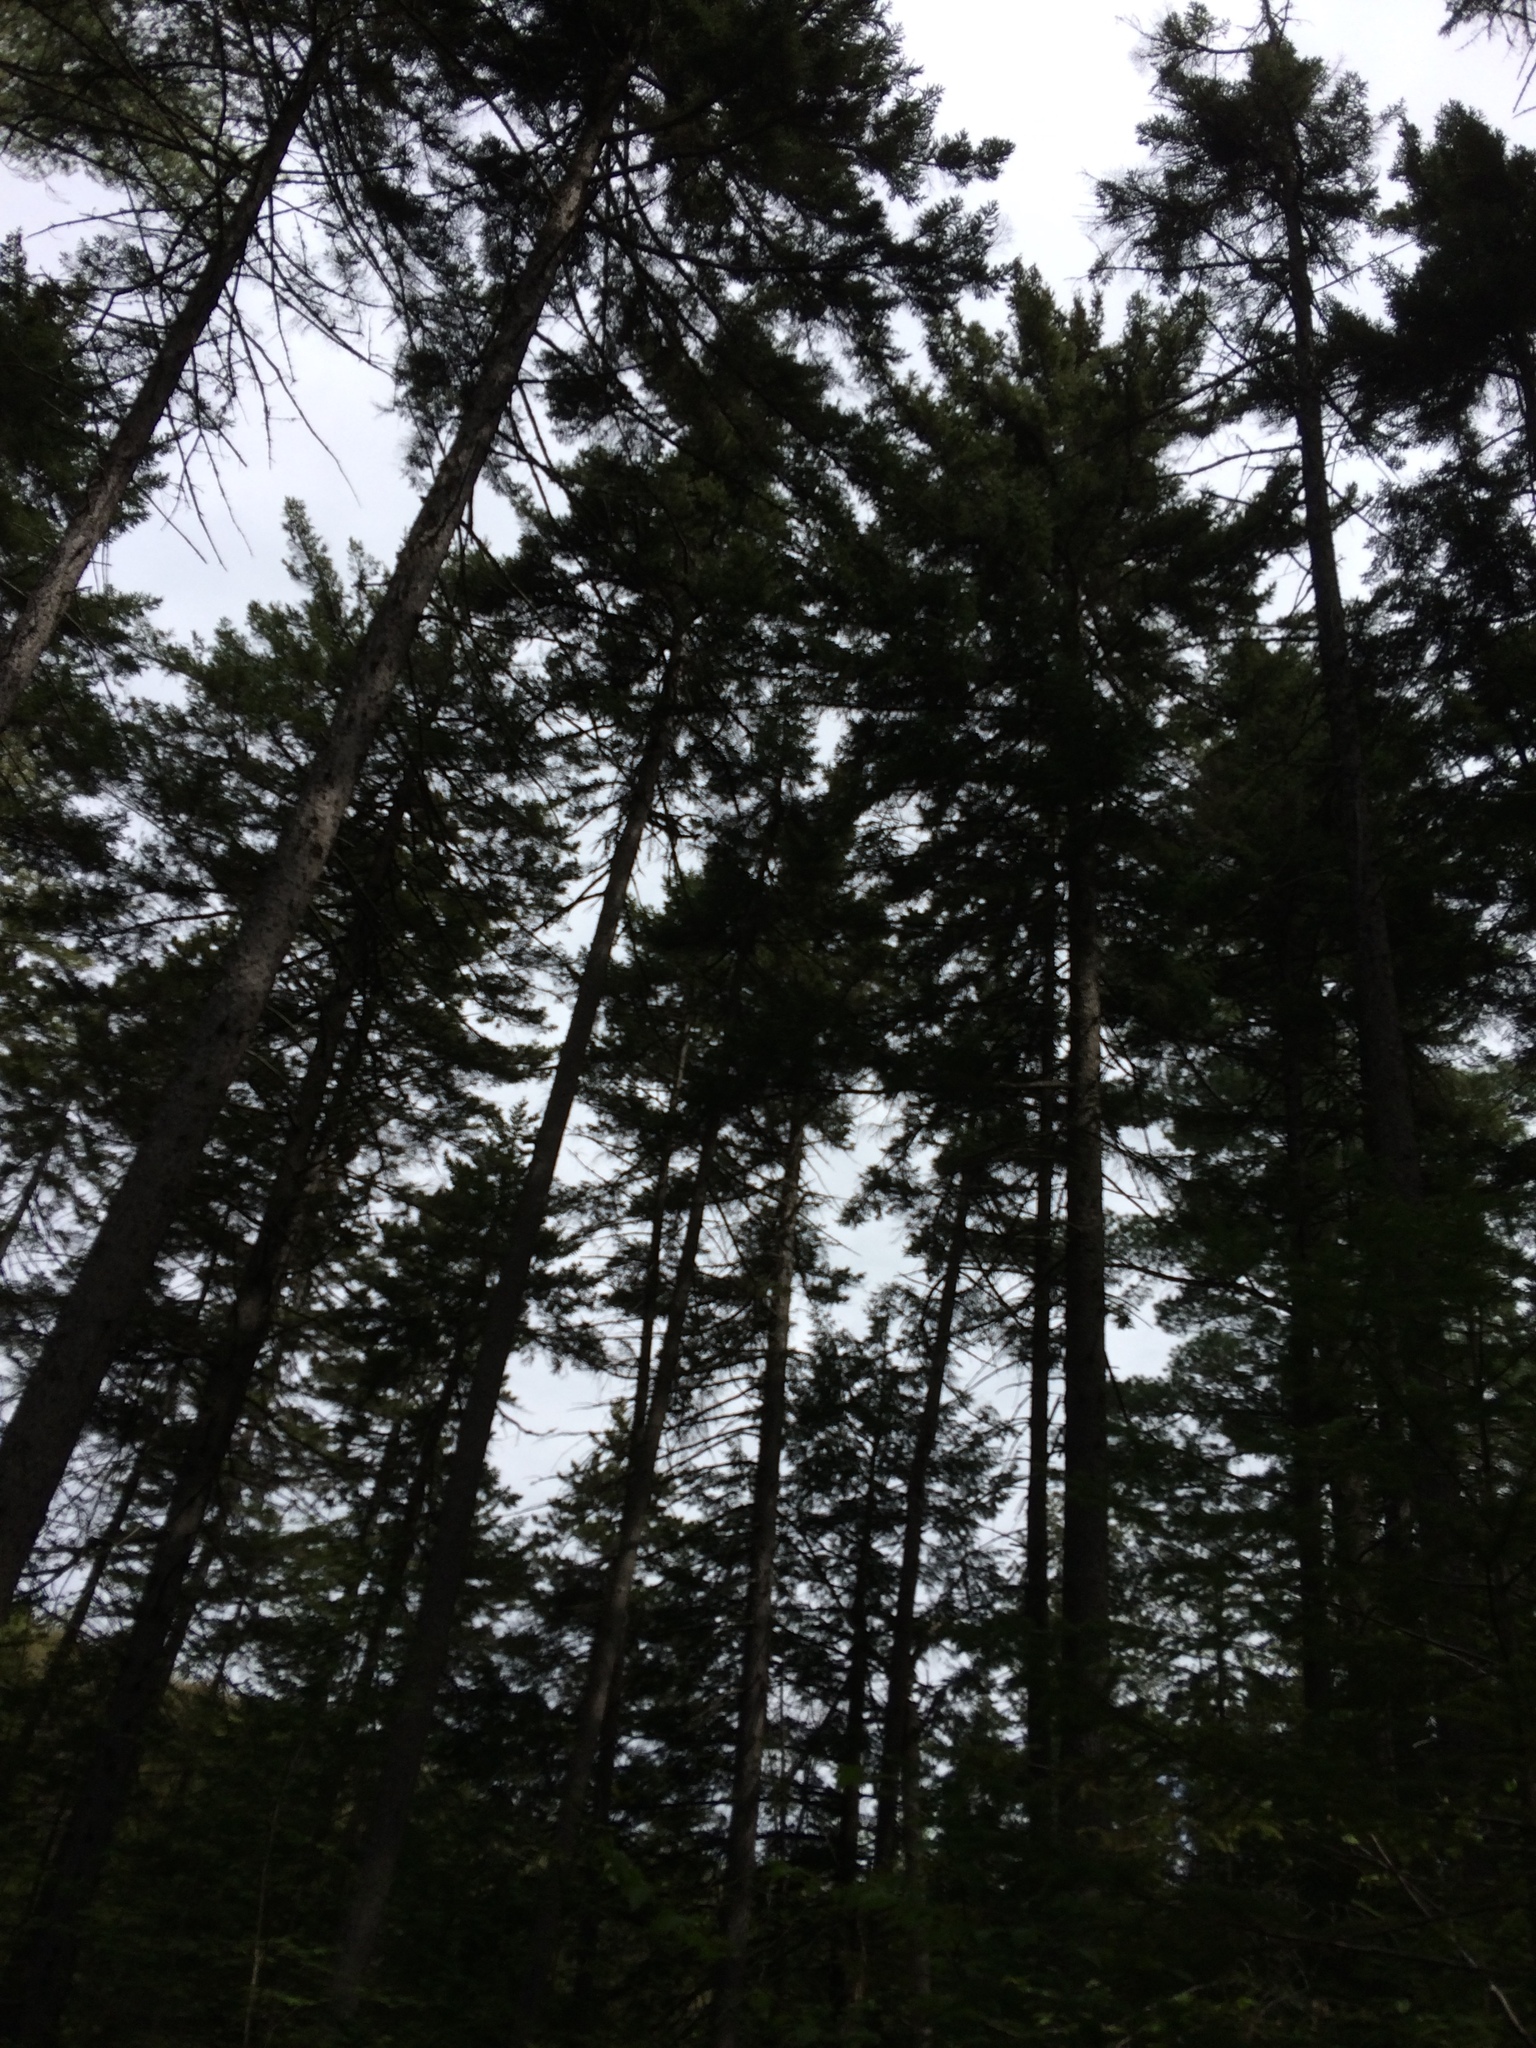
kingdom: Plantae
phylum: Tracheophyta
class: Pinopsida
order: Pinales
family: Pinaceae
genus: Picea
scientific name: Picea rubens
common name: Red spruce
